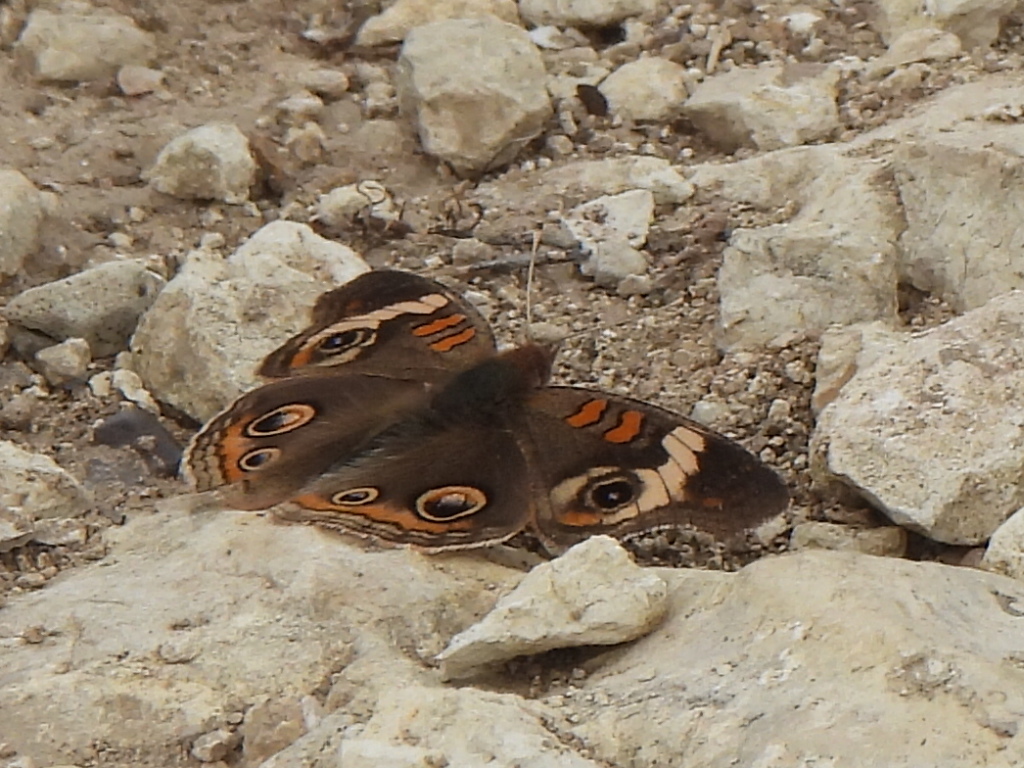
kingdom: Animalia
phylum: Arthropoda
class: Insecta
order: Lepidoptera
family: Nymphalidae
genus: Junonia
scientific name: Junonia coenia
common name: Common buckeye
